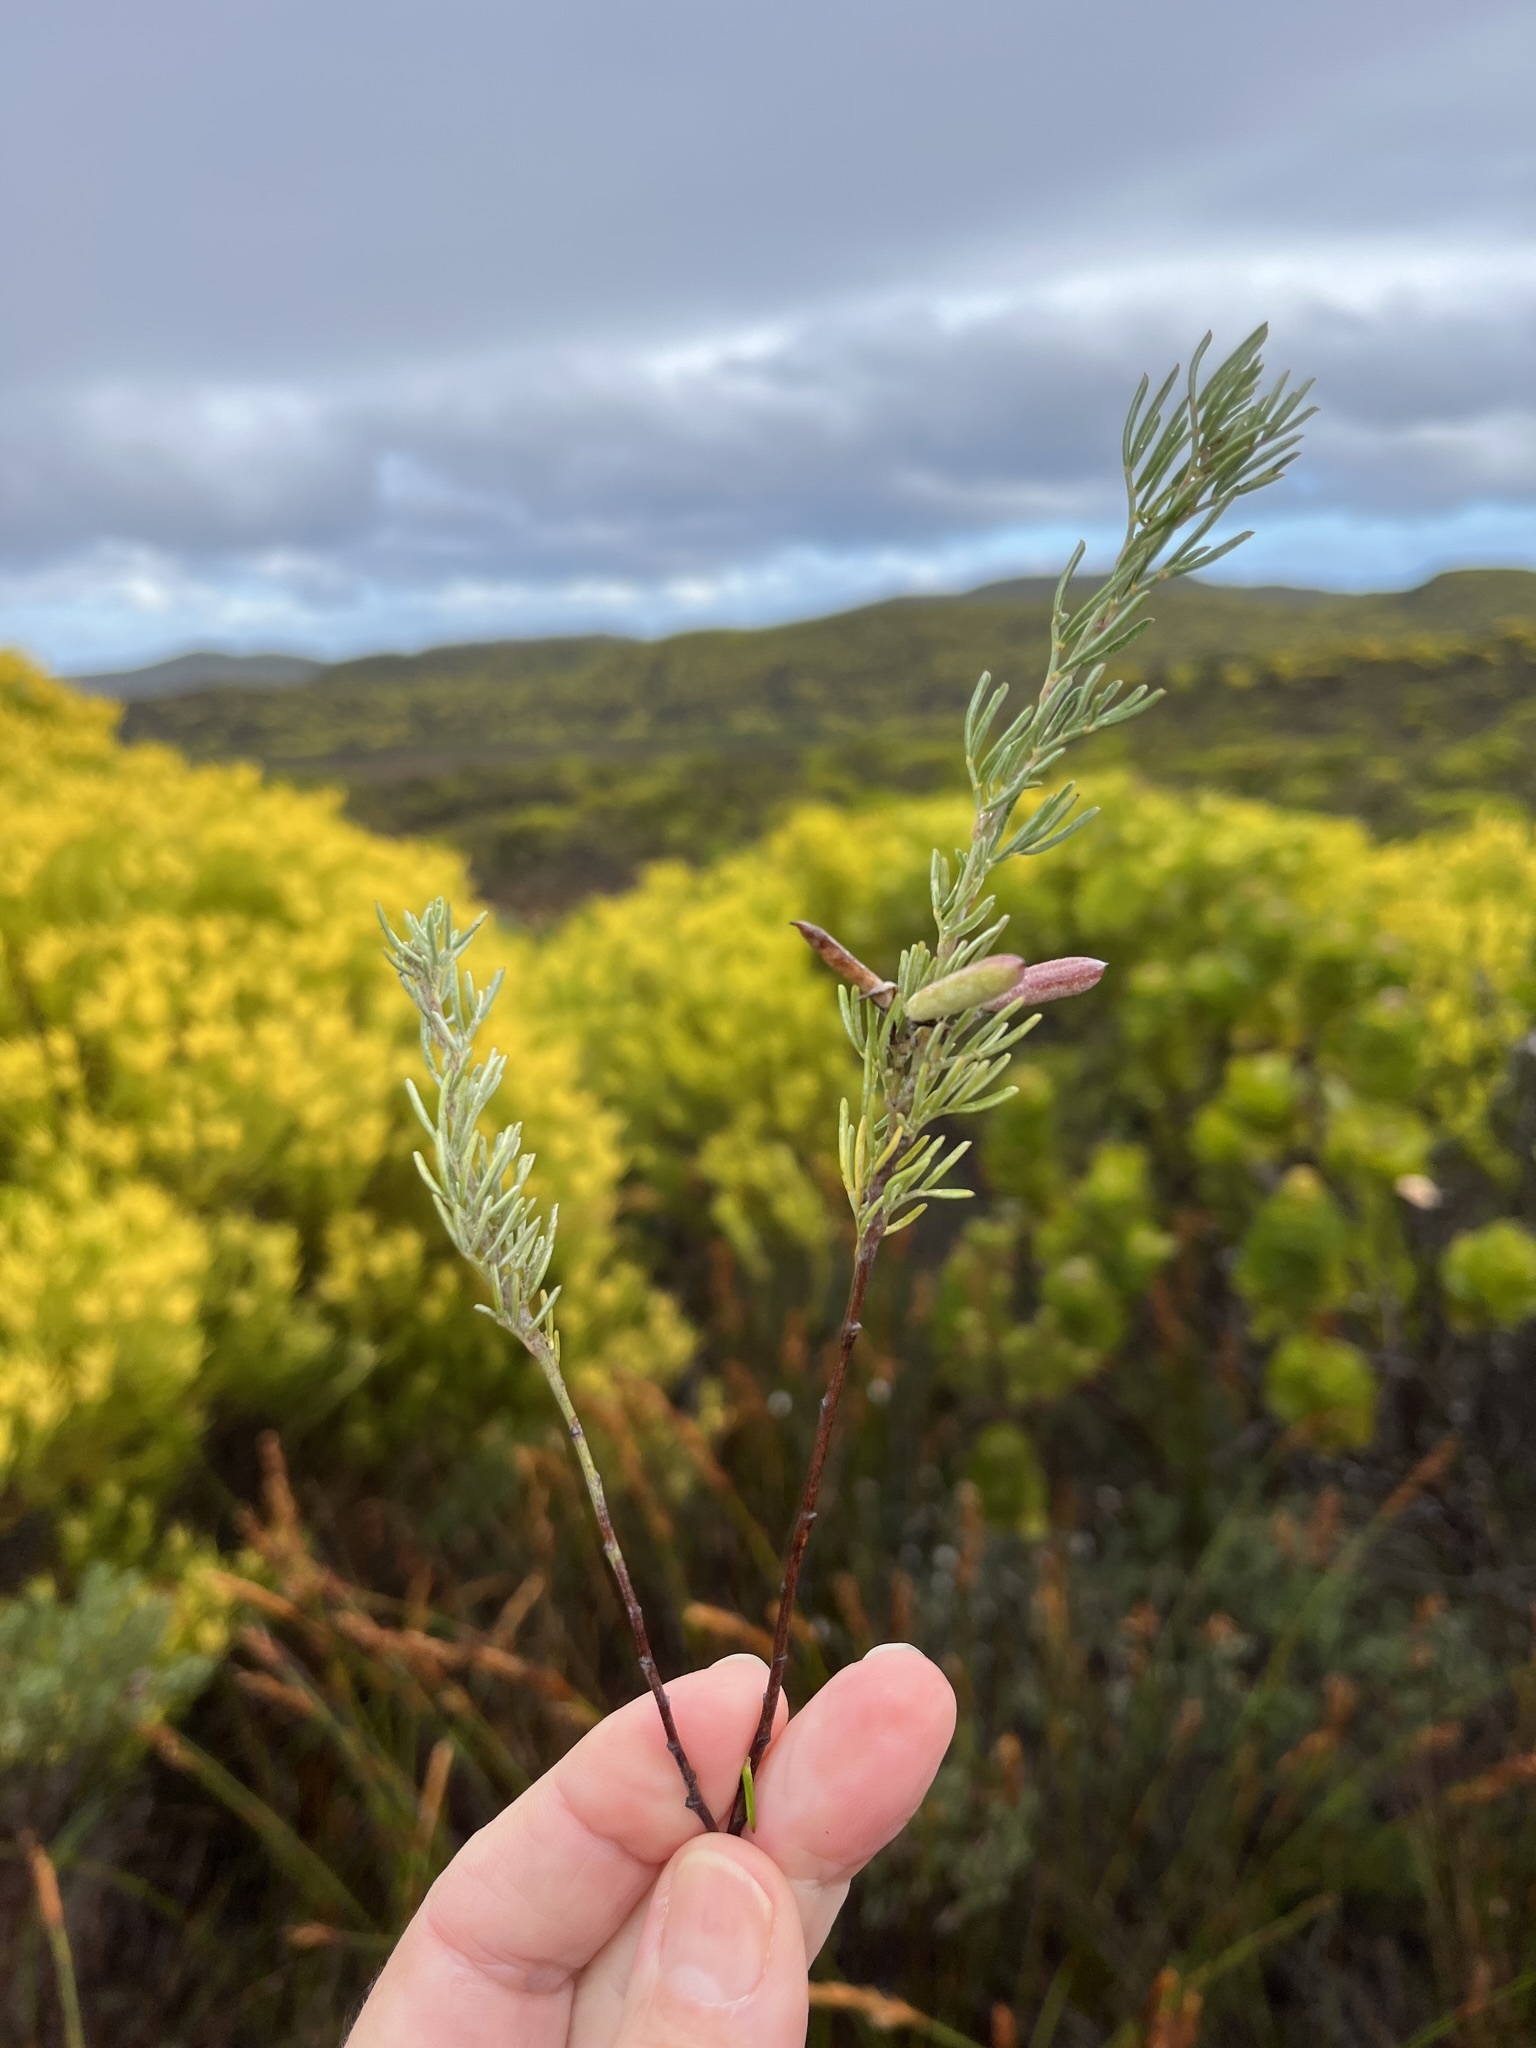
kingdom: Plantae
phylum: Tracheophyta
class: Magnoliopsida
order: Fabales
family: Fabaceae
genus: Indigofera
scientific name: Indigofera
